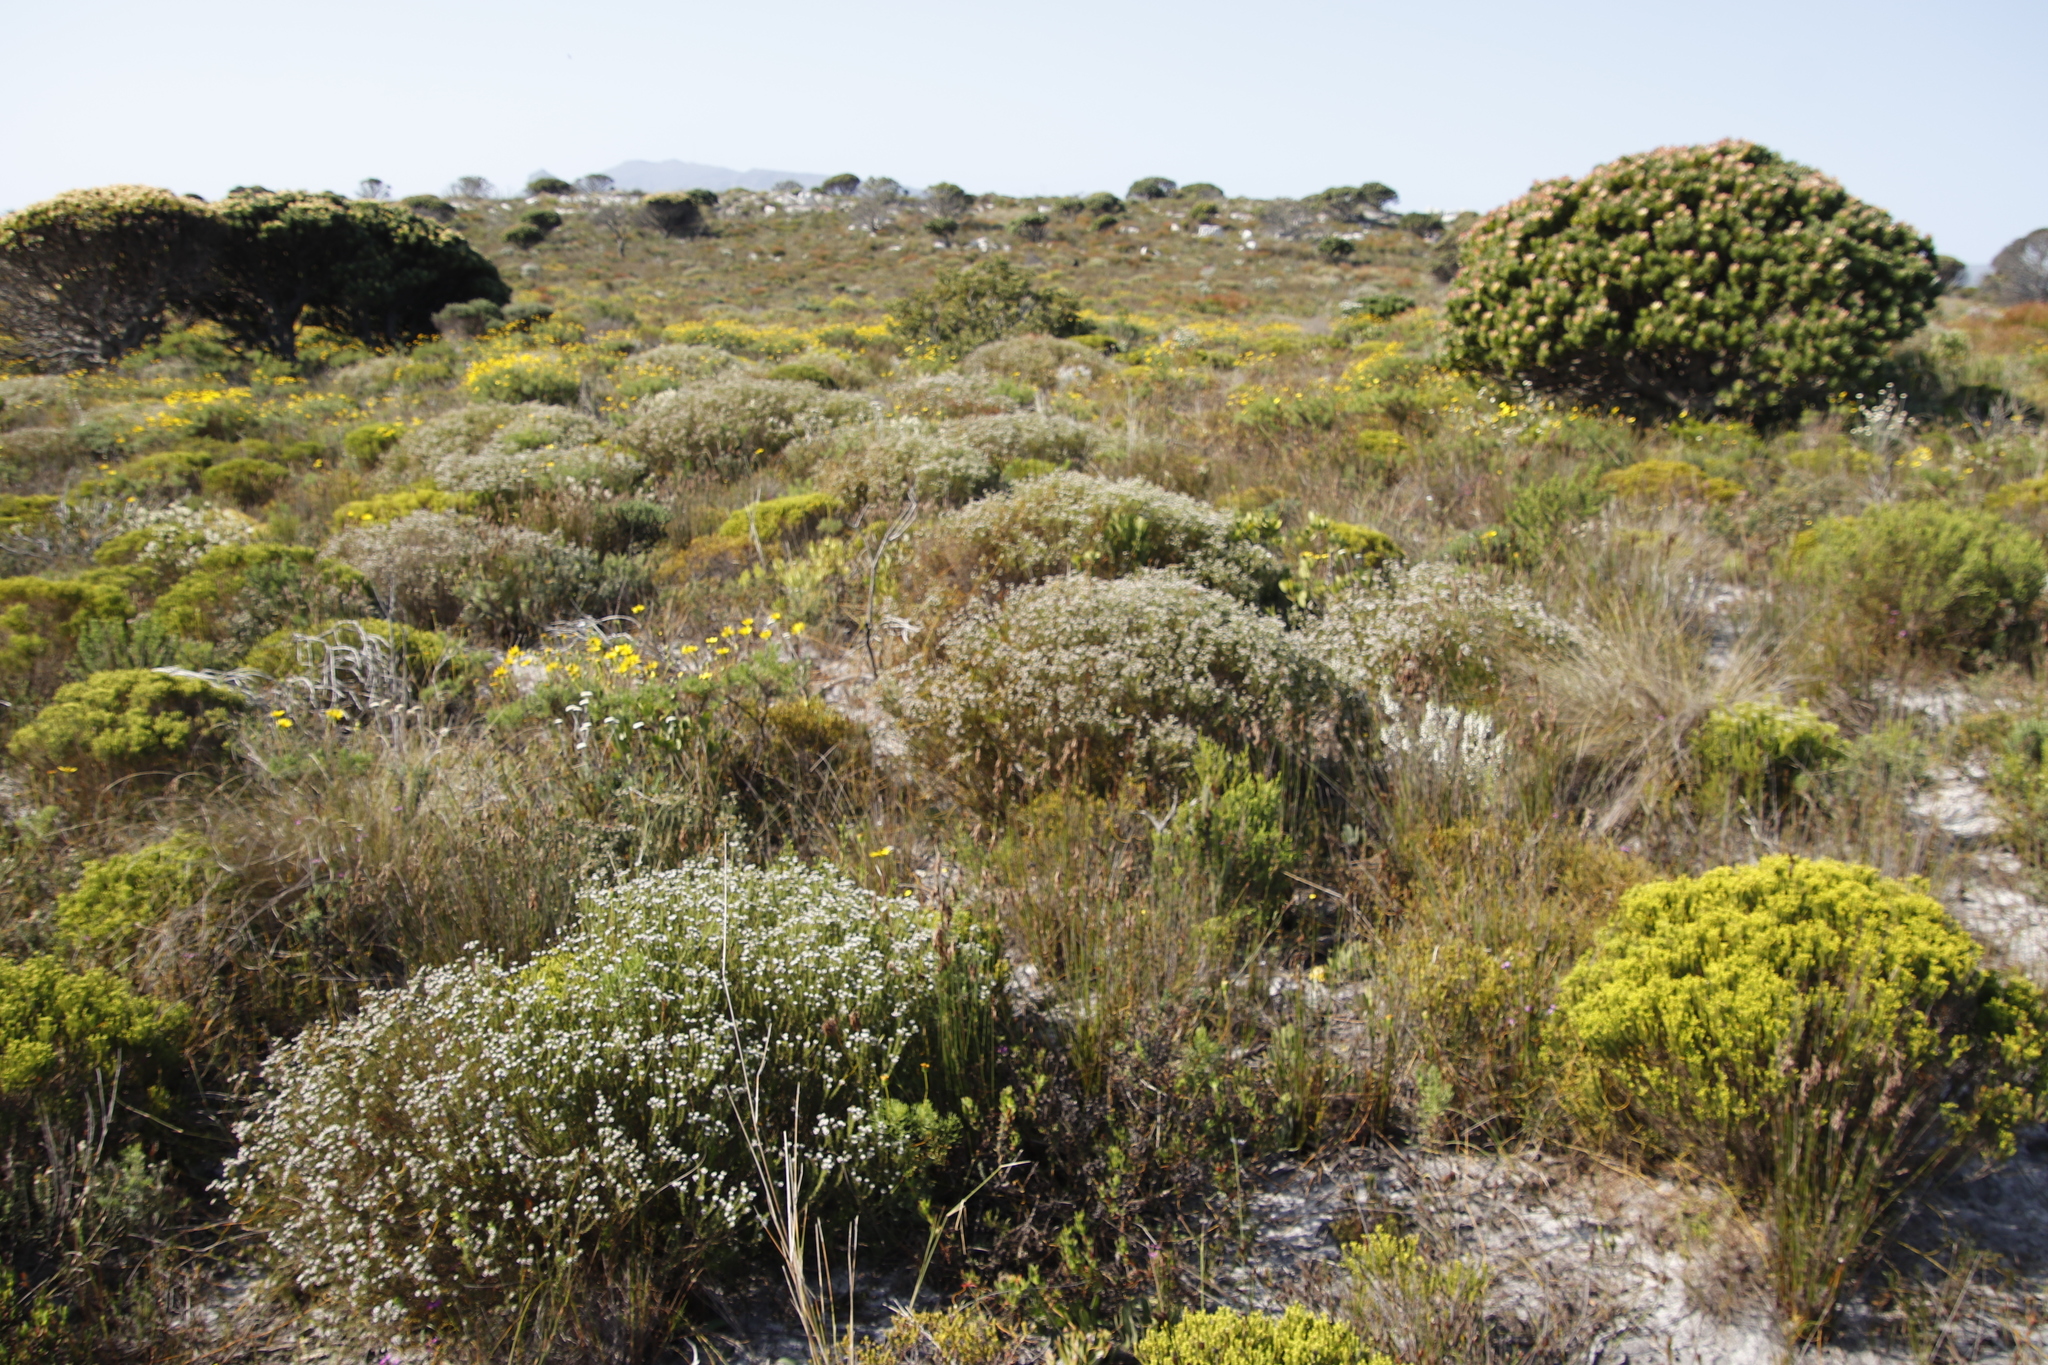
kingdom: Plantae
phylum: Tracheophyta
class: Magnoliopsida
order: Bruniales
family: Bruniaceae
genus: Staavia
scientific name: Staavia radiata
